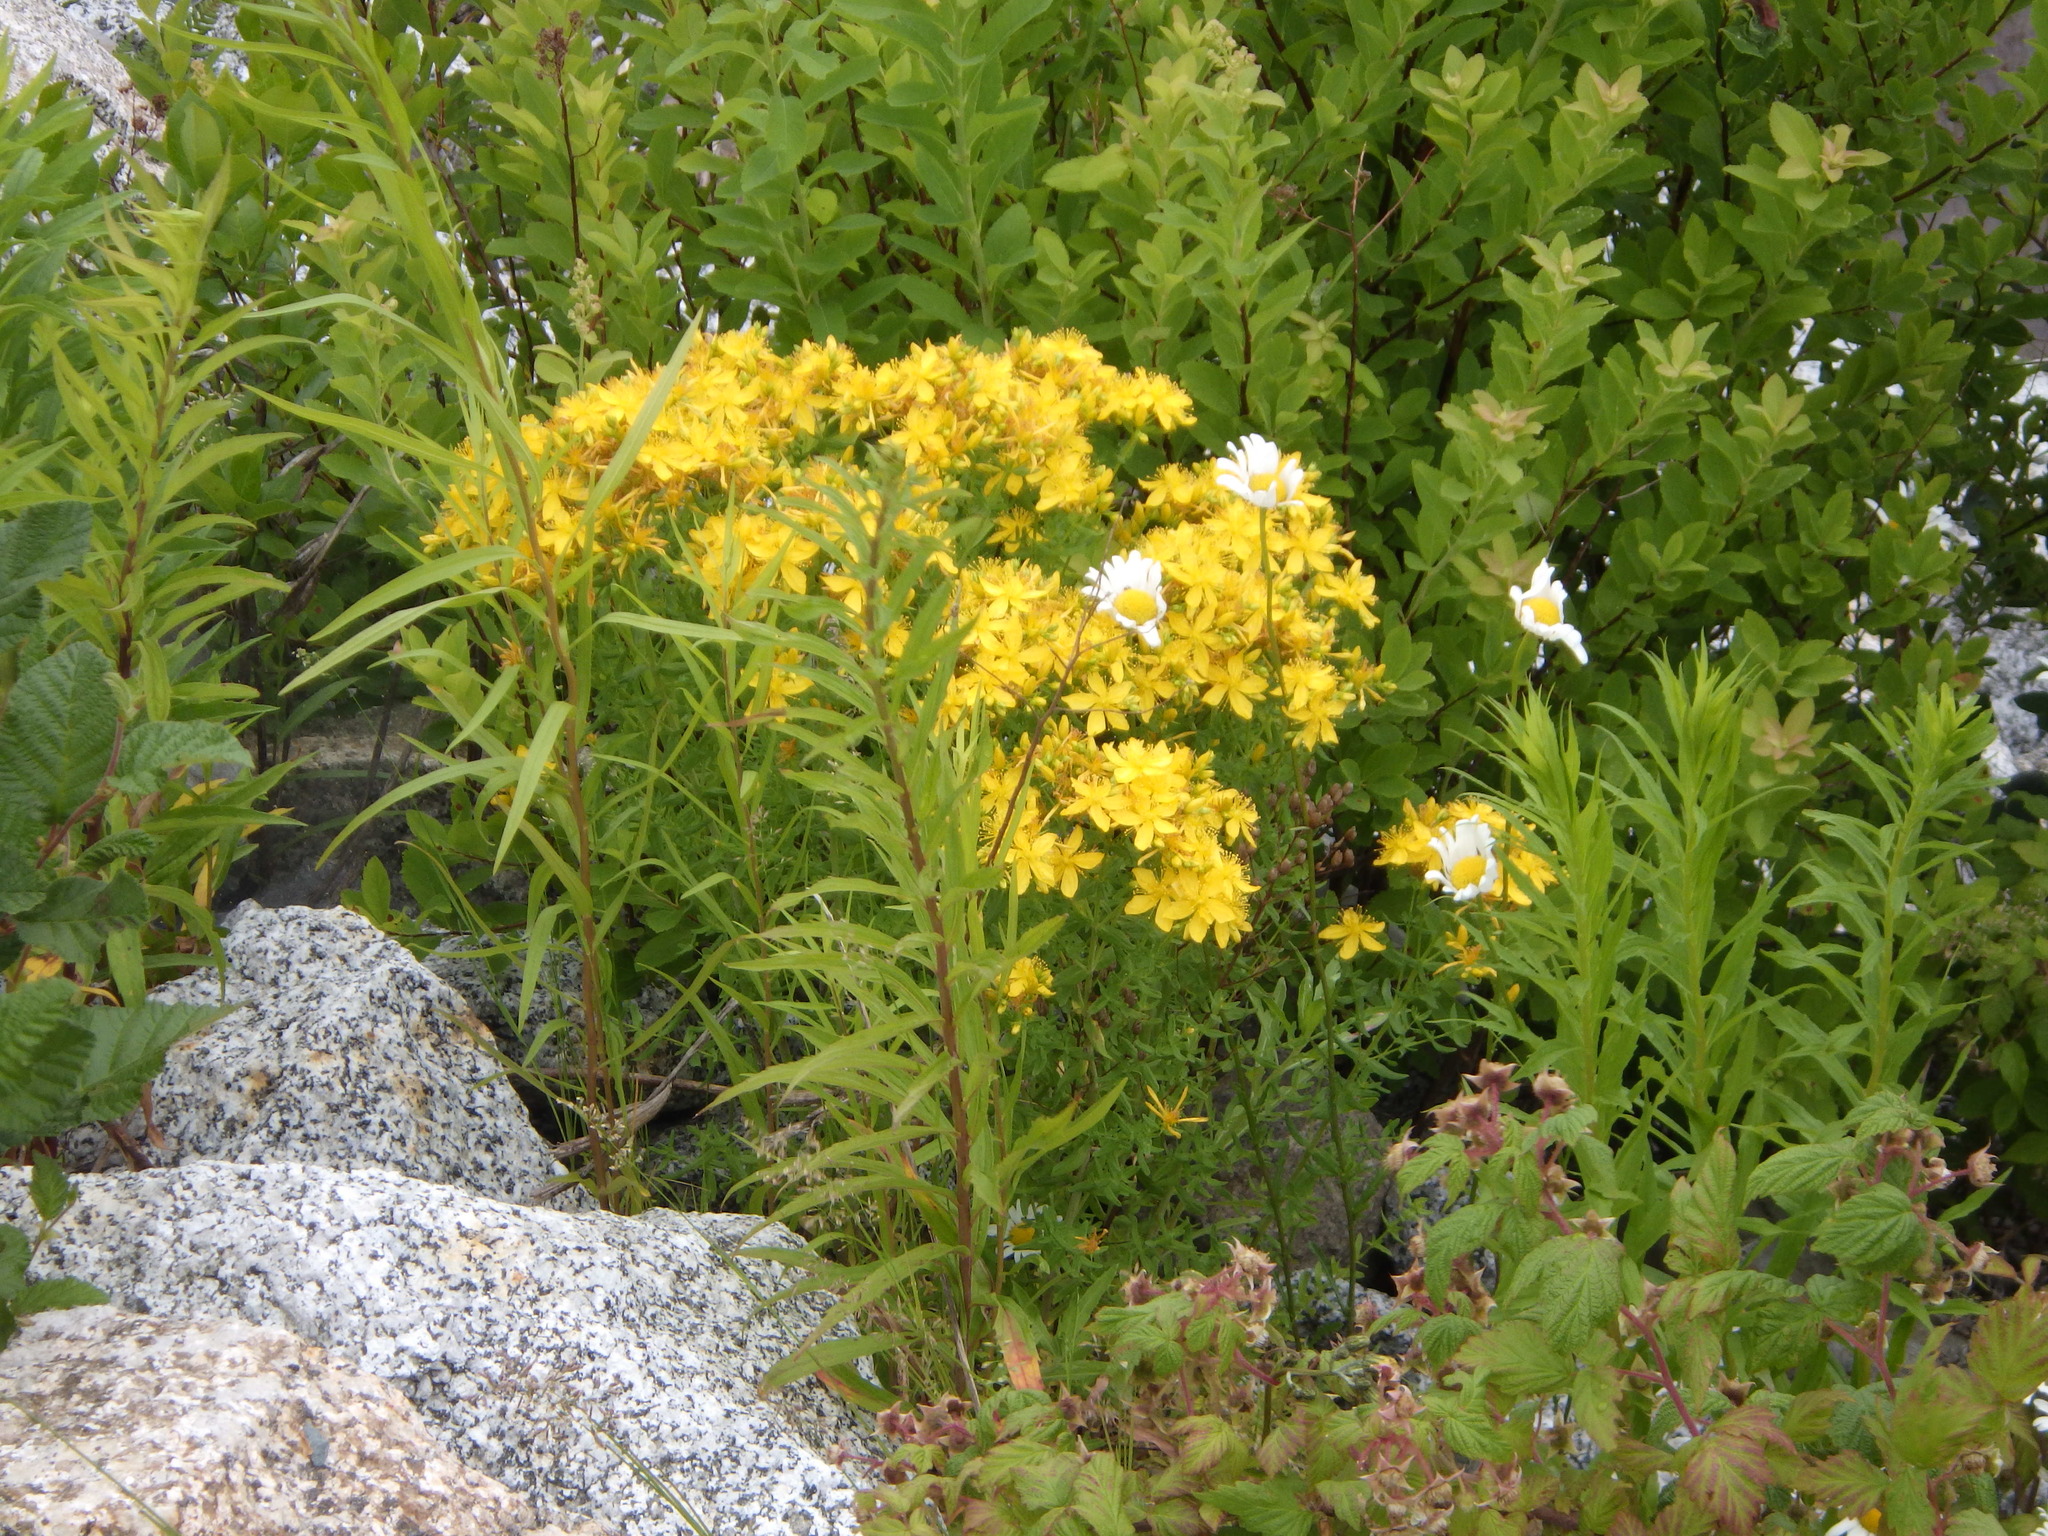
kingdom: Plantae
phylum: Tracheophyta
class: Magnoliopsida
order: Asterales
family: Asteraceae
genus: Euthamia
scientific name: Euthamia graminifolia
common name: Common goldentop
